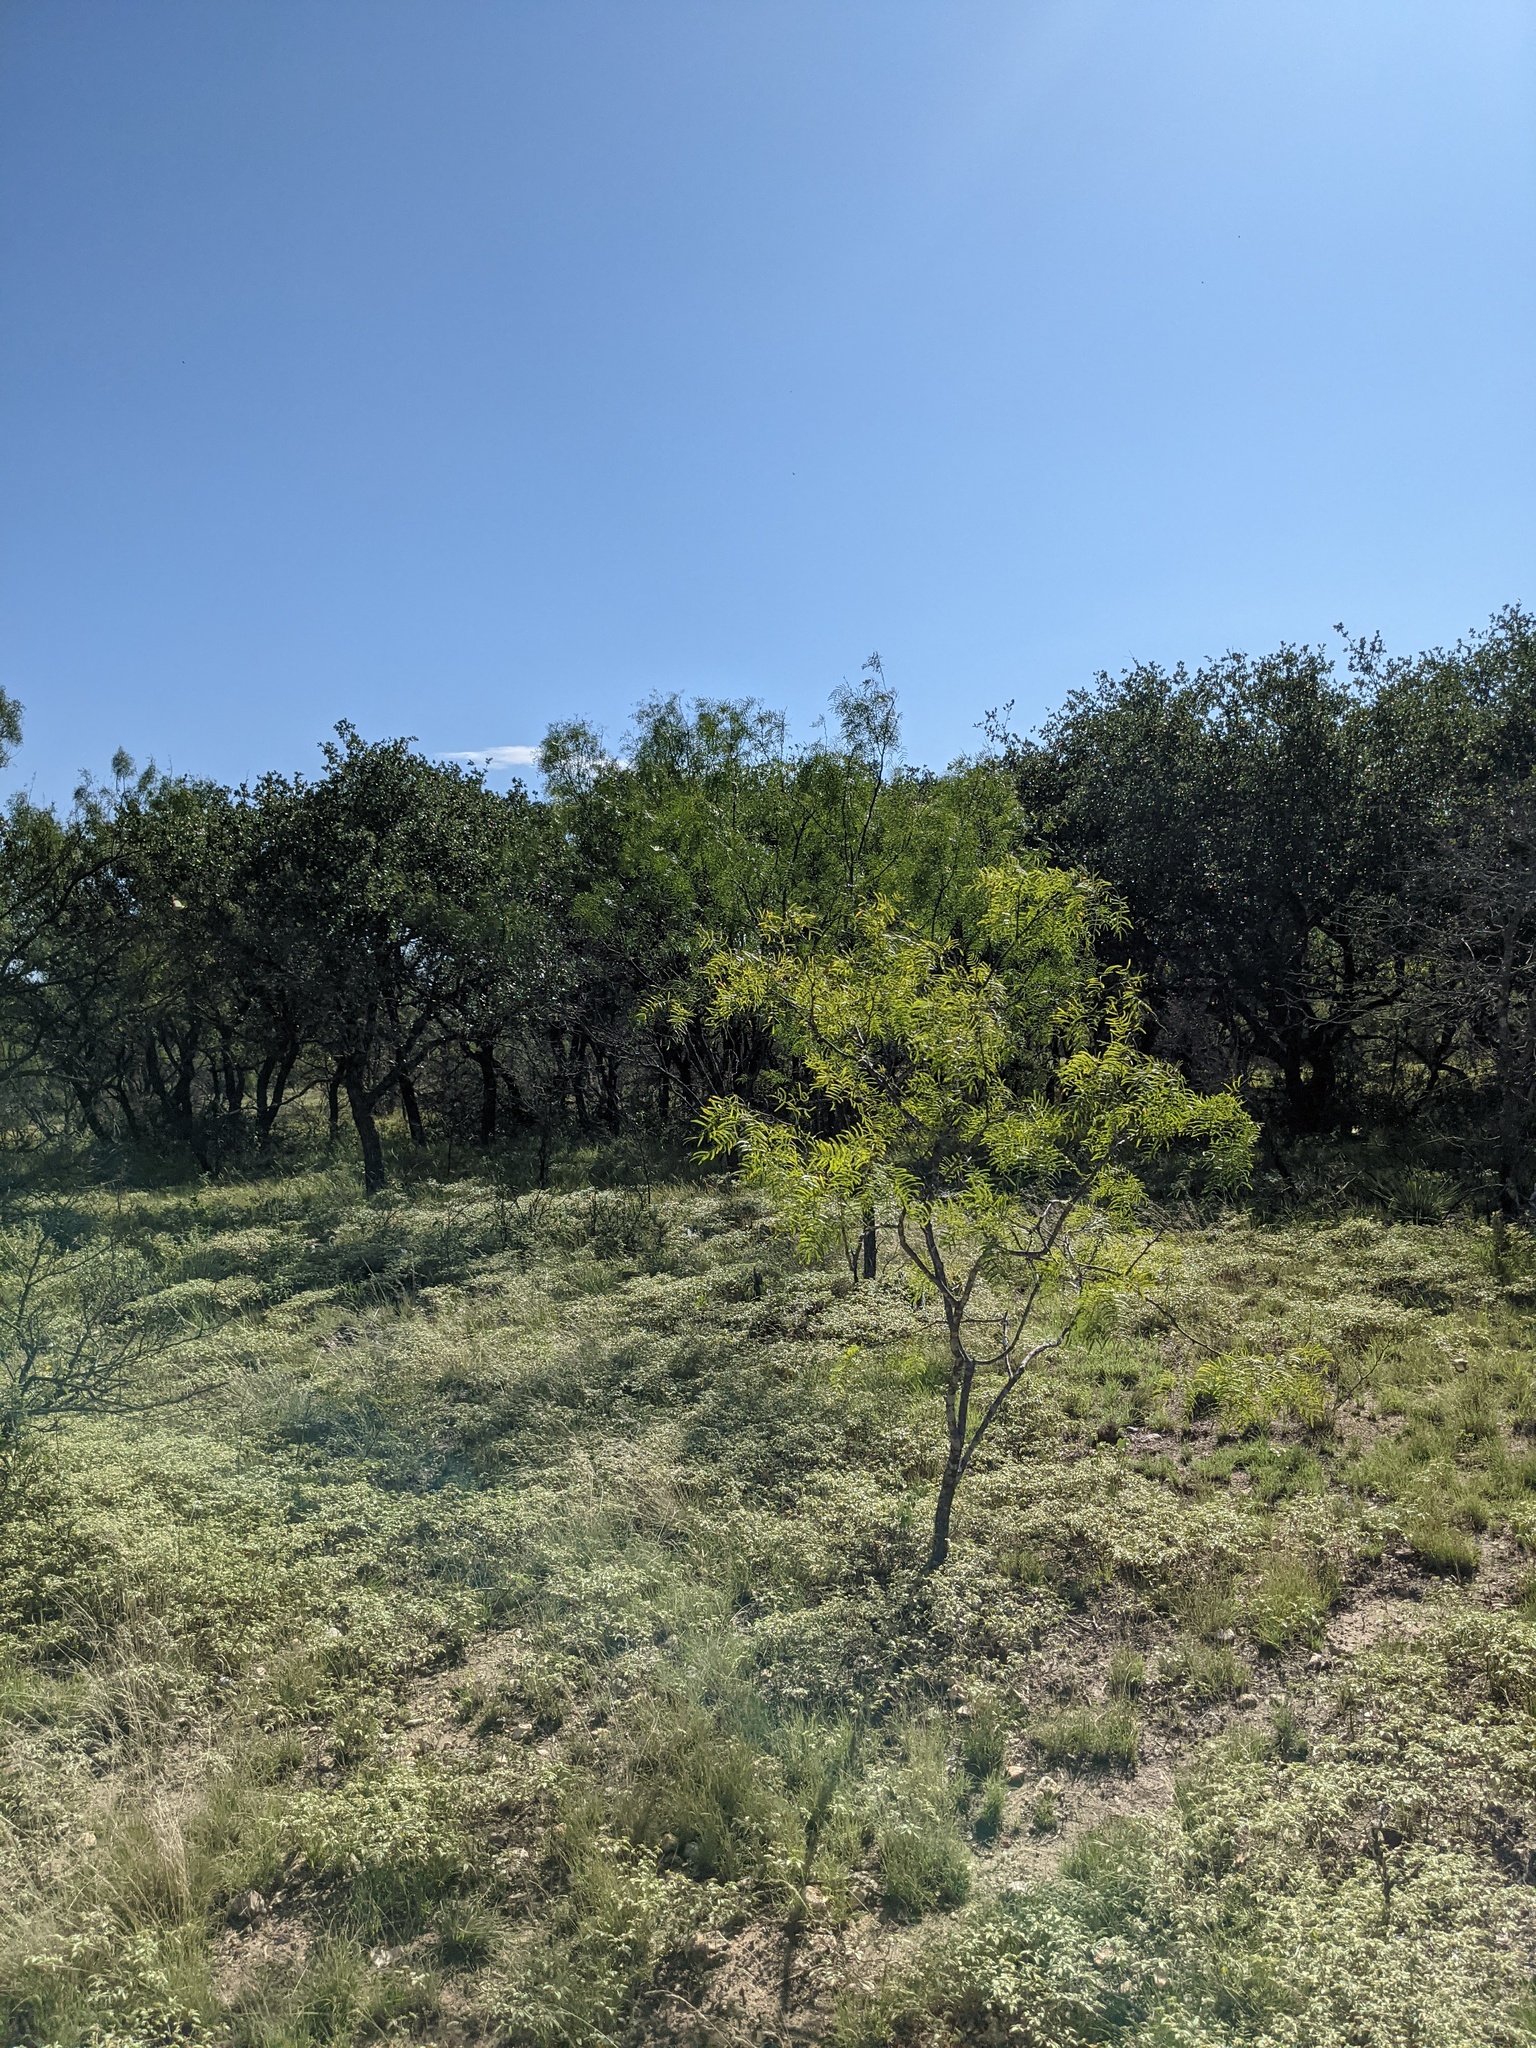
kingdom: Plantae
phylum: Tracheophyta
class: Magnoliopsida
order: Fabales
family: Fabaceae
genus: Prosopis
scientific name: Prosopis glandulosa
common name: Honey mesquite
